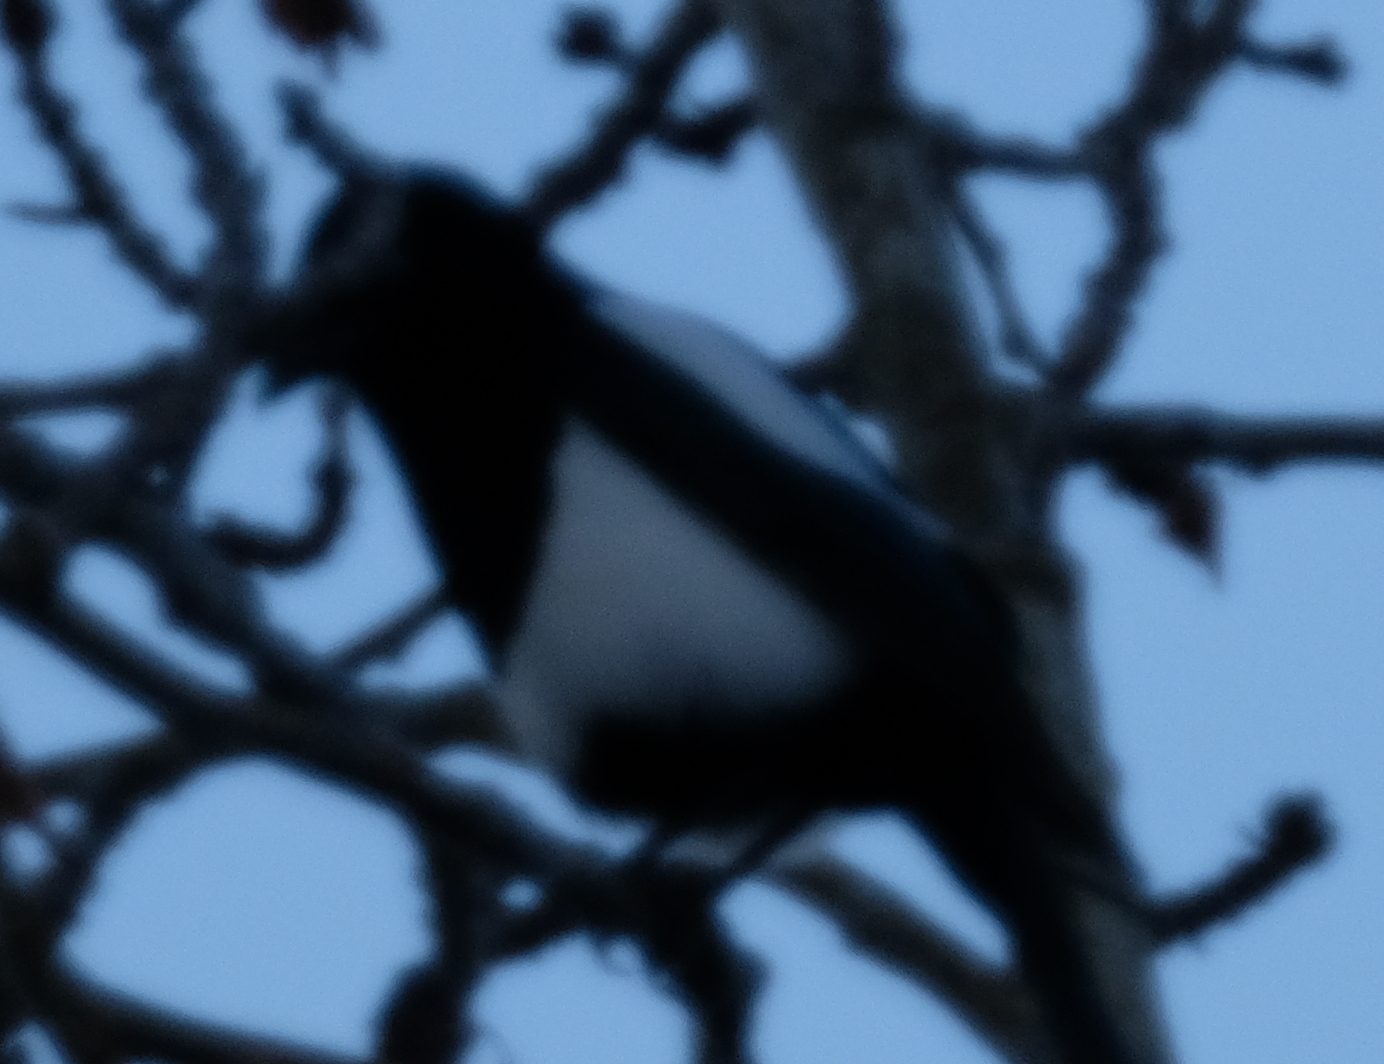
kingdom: Animalia
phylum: Chordata
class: Aves
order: Passeriformes
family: Corvidae
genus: Pica
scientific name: Pica hudsonia
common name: Black-billed magpie
